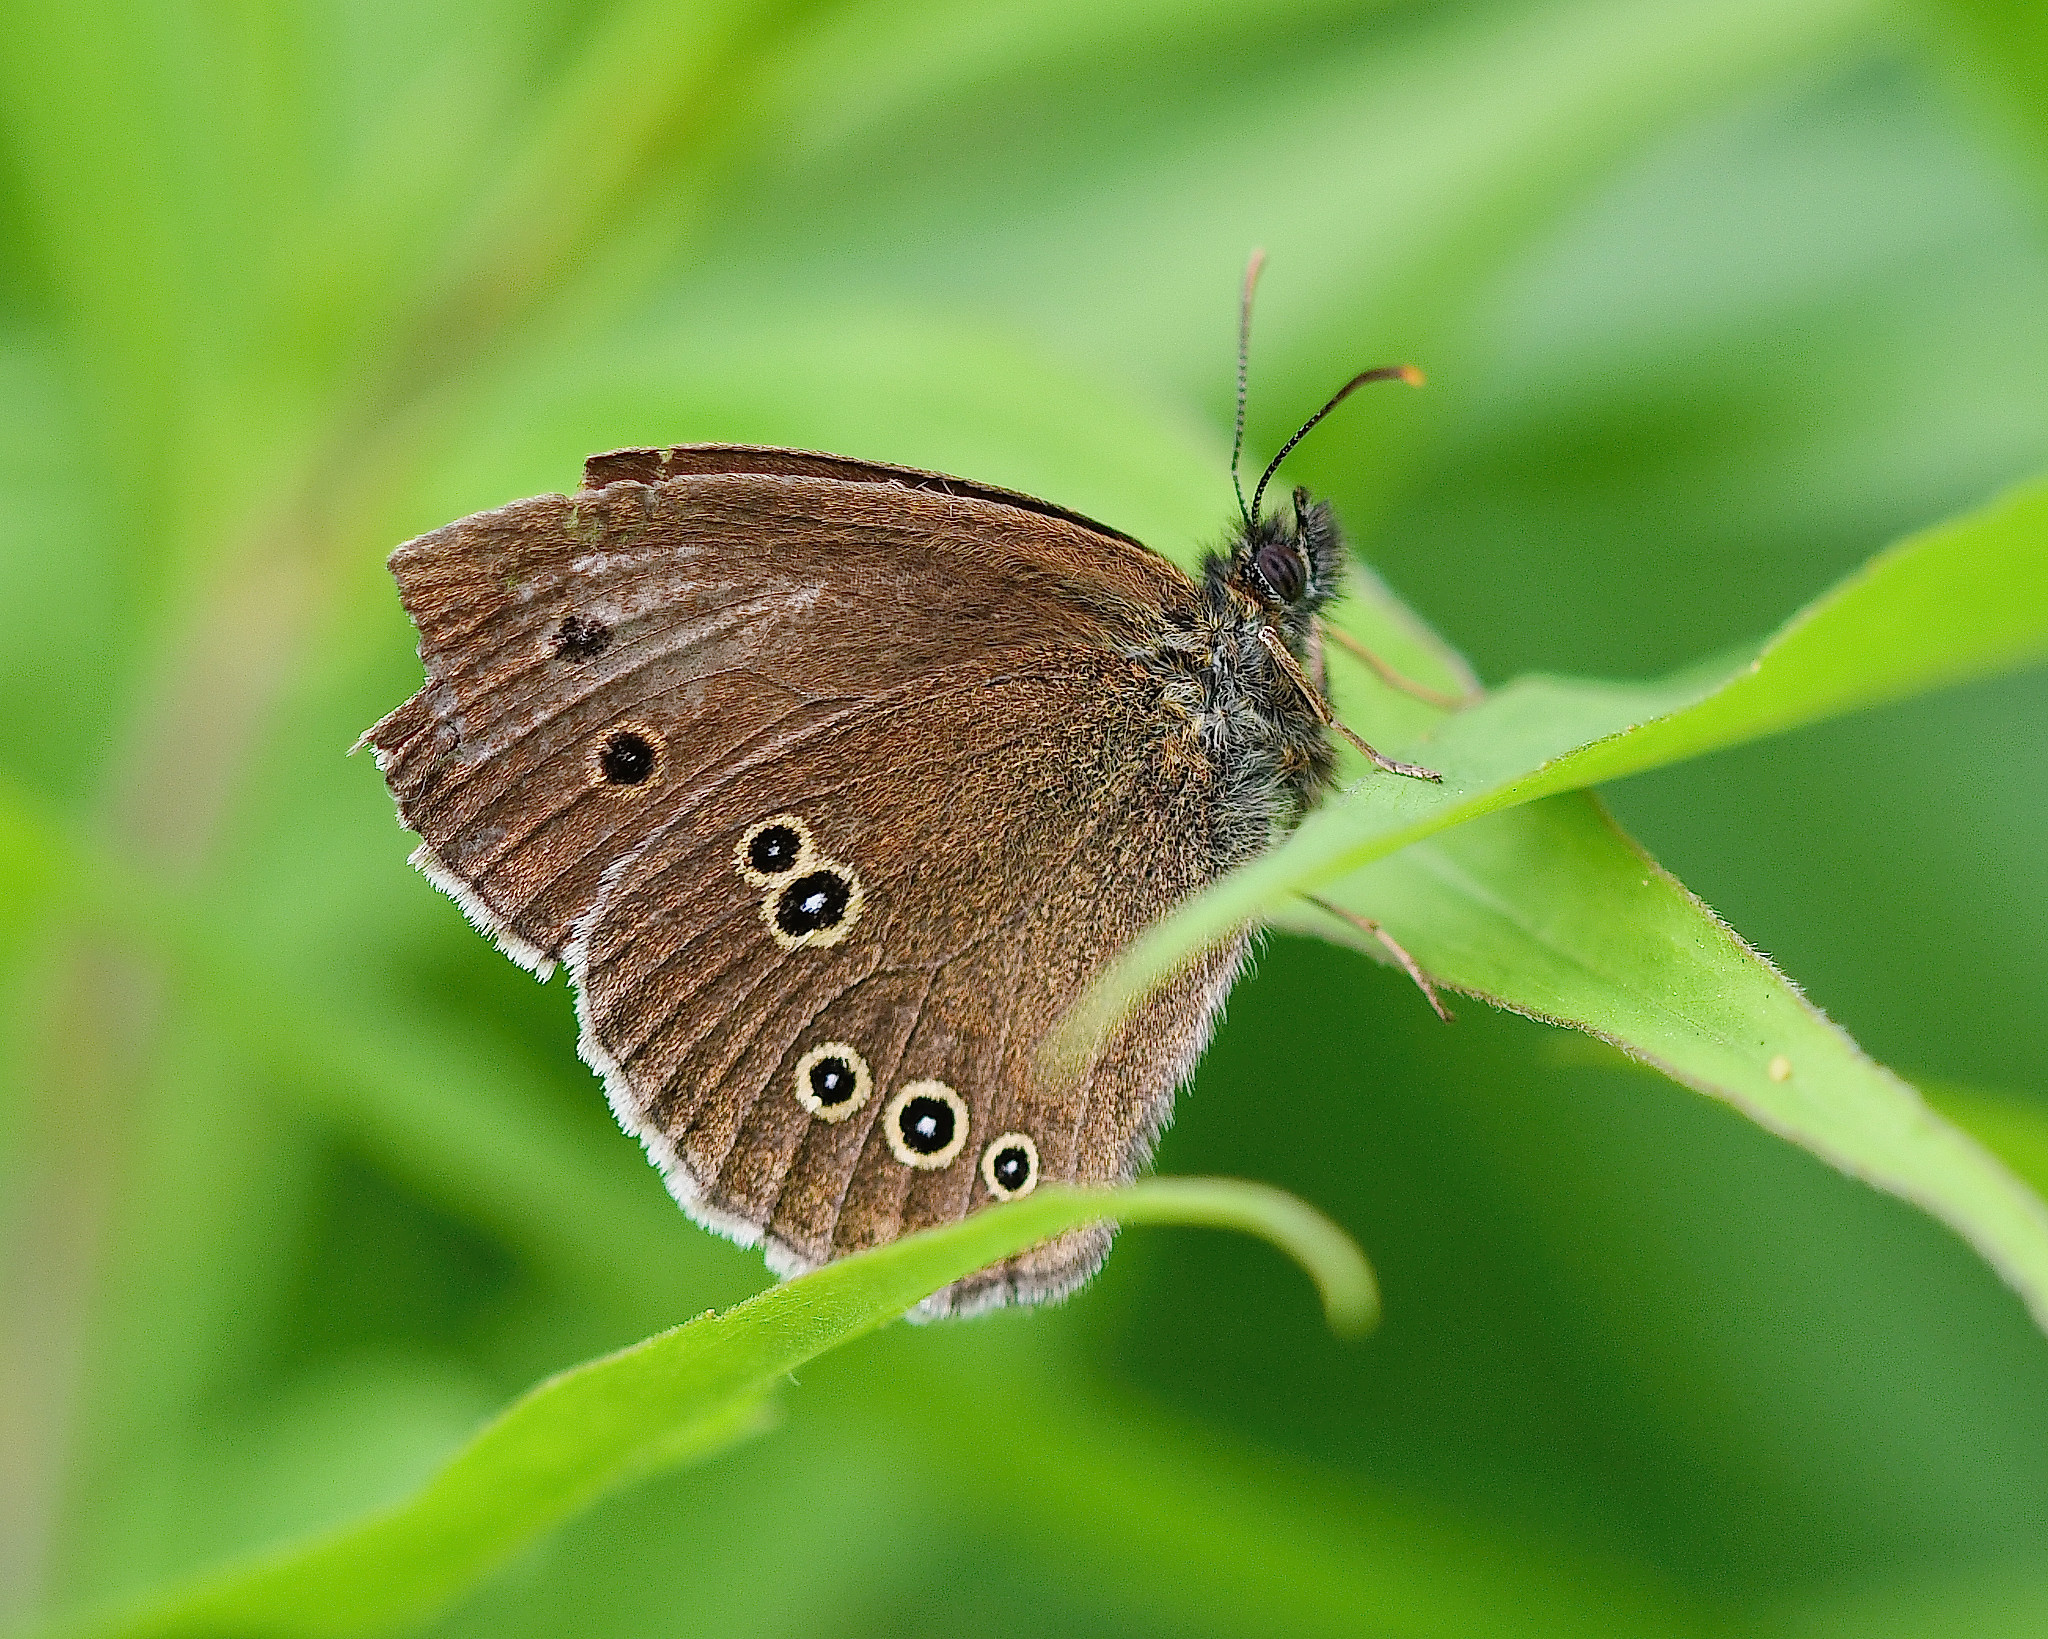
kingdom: Animalia
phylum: Arthropoda
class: Insecta
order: Lepidoptera
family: Nymphalidae
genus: Aphantopus
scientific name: Aphantopus hyperantus
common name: Ringlet
